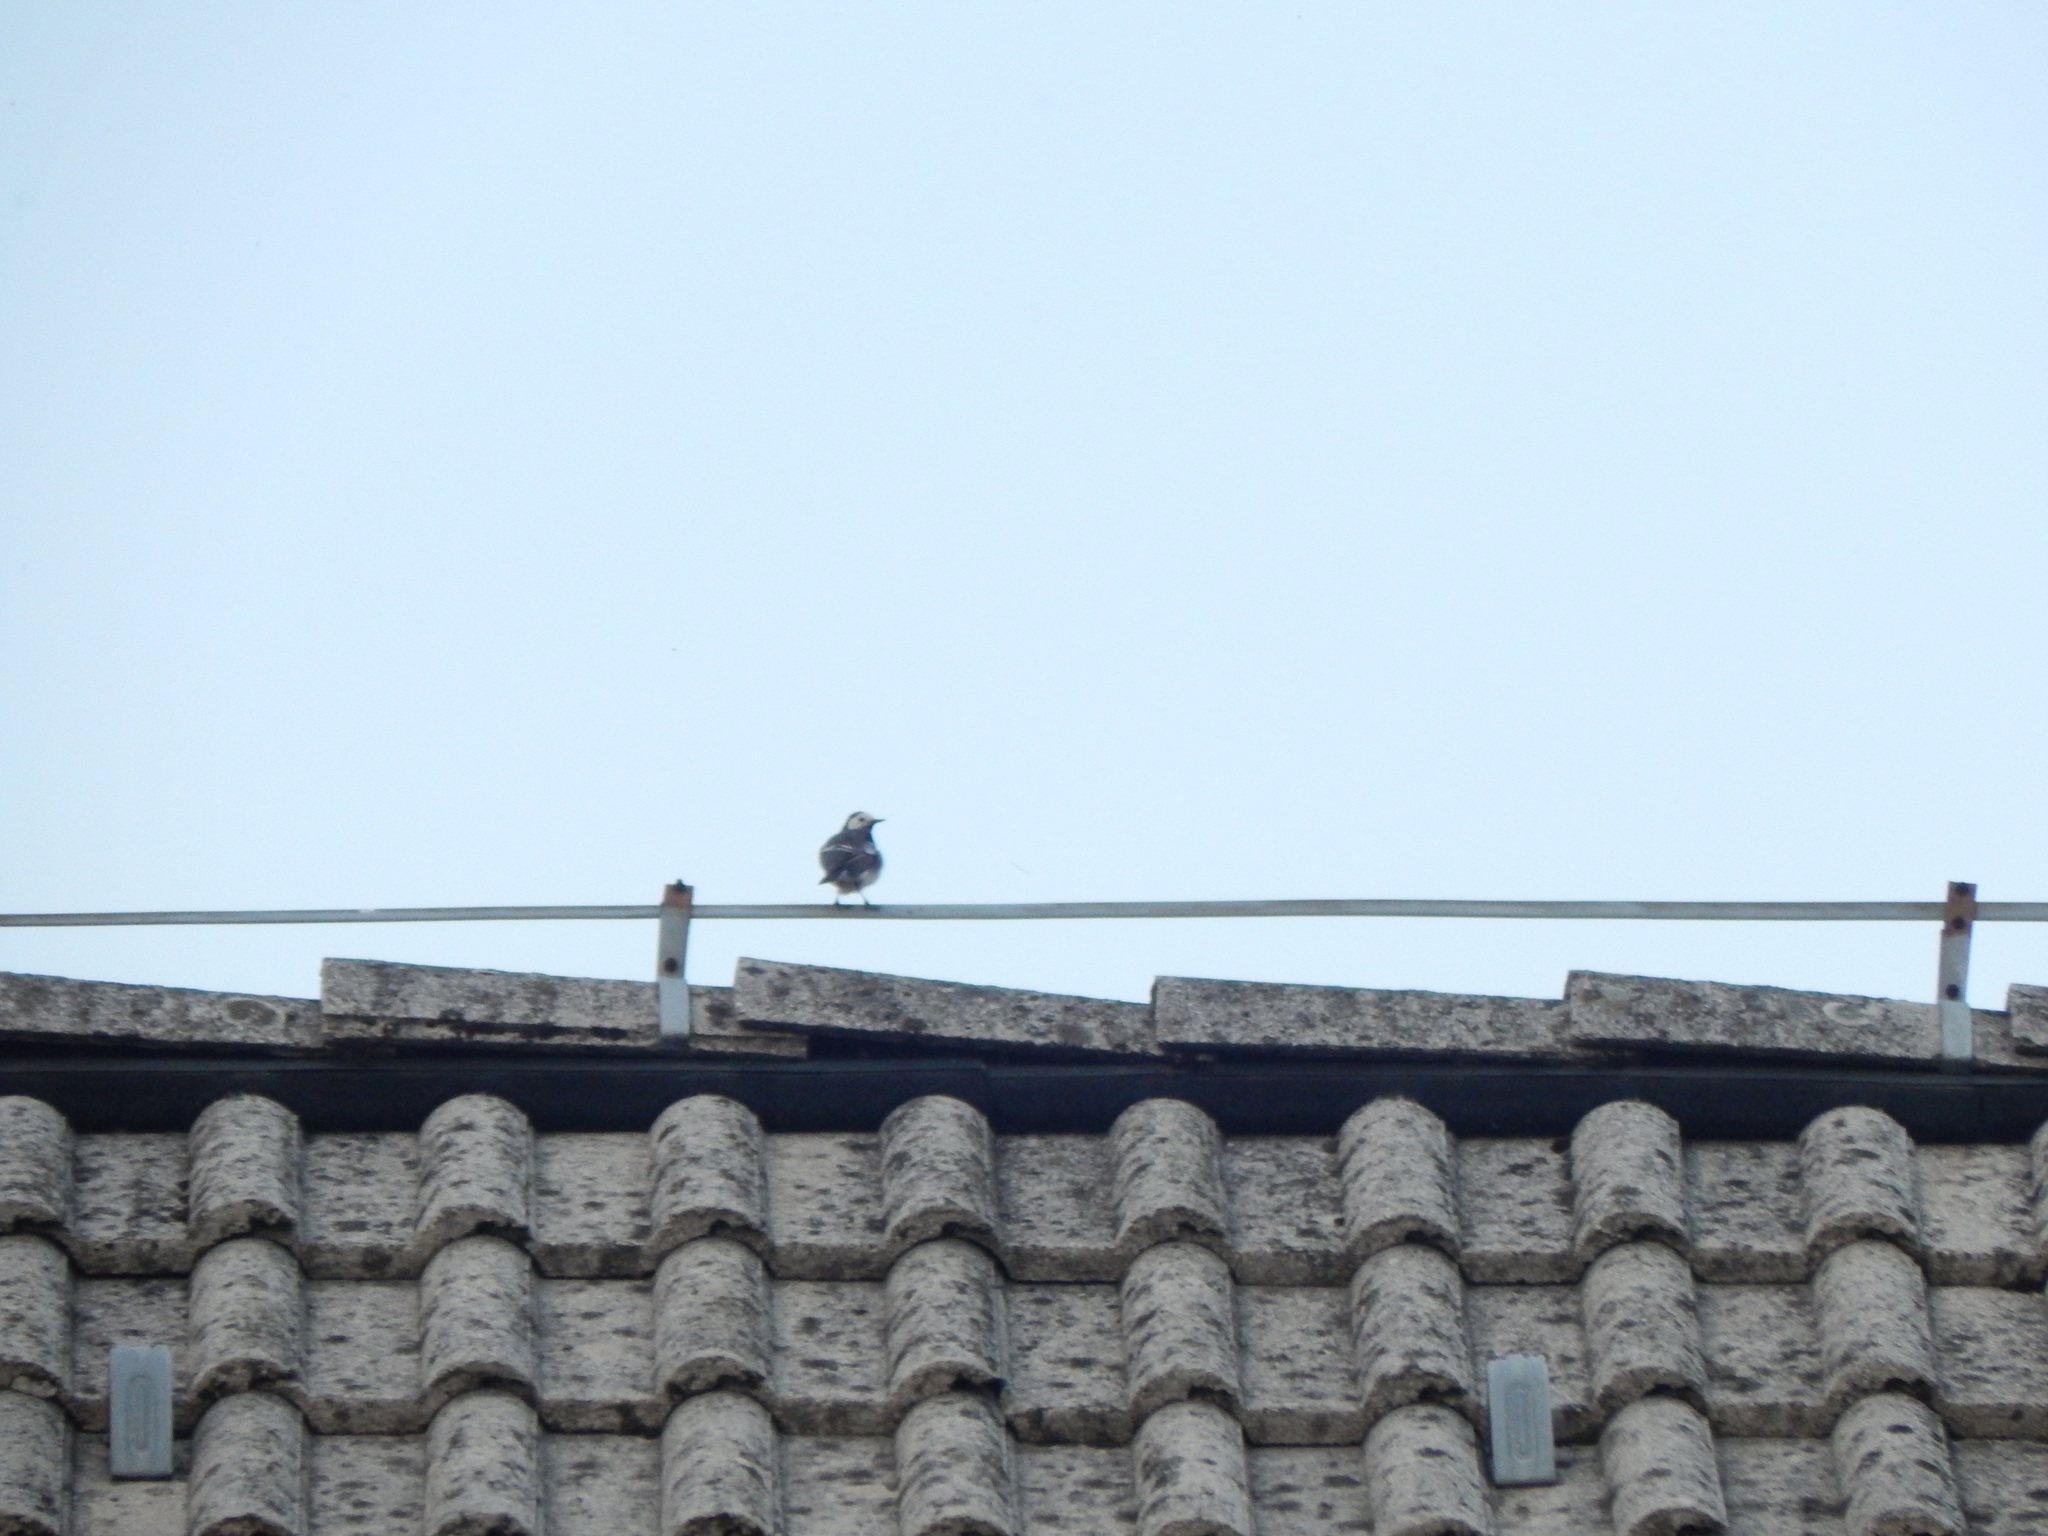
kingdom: Animalia
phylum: Chordata
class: Aves
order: Passeriformes
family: Motacillidae
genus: Motacilla
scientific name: Motacilla alba
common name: White wagtail
